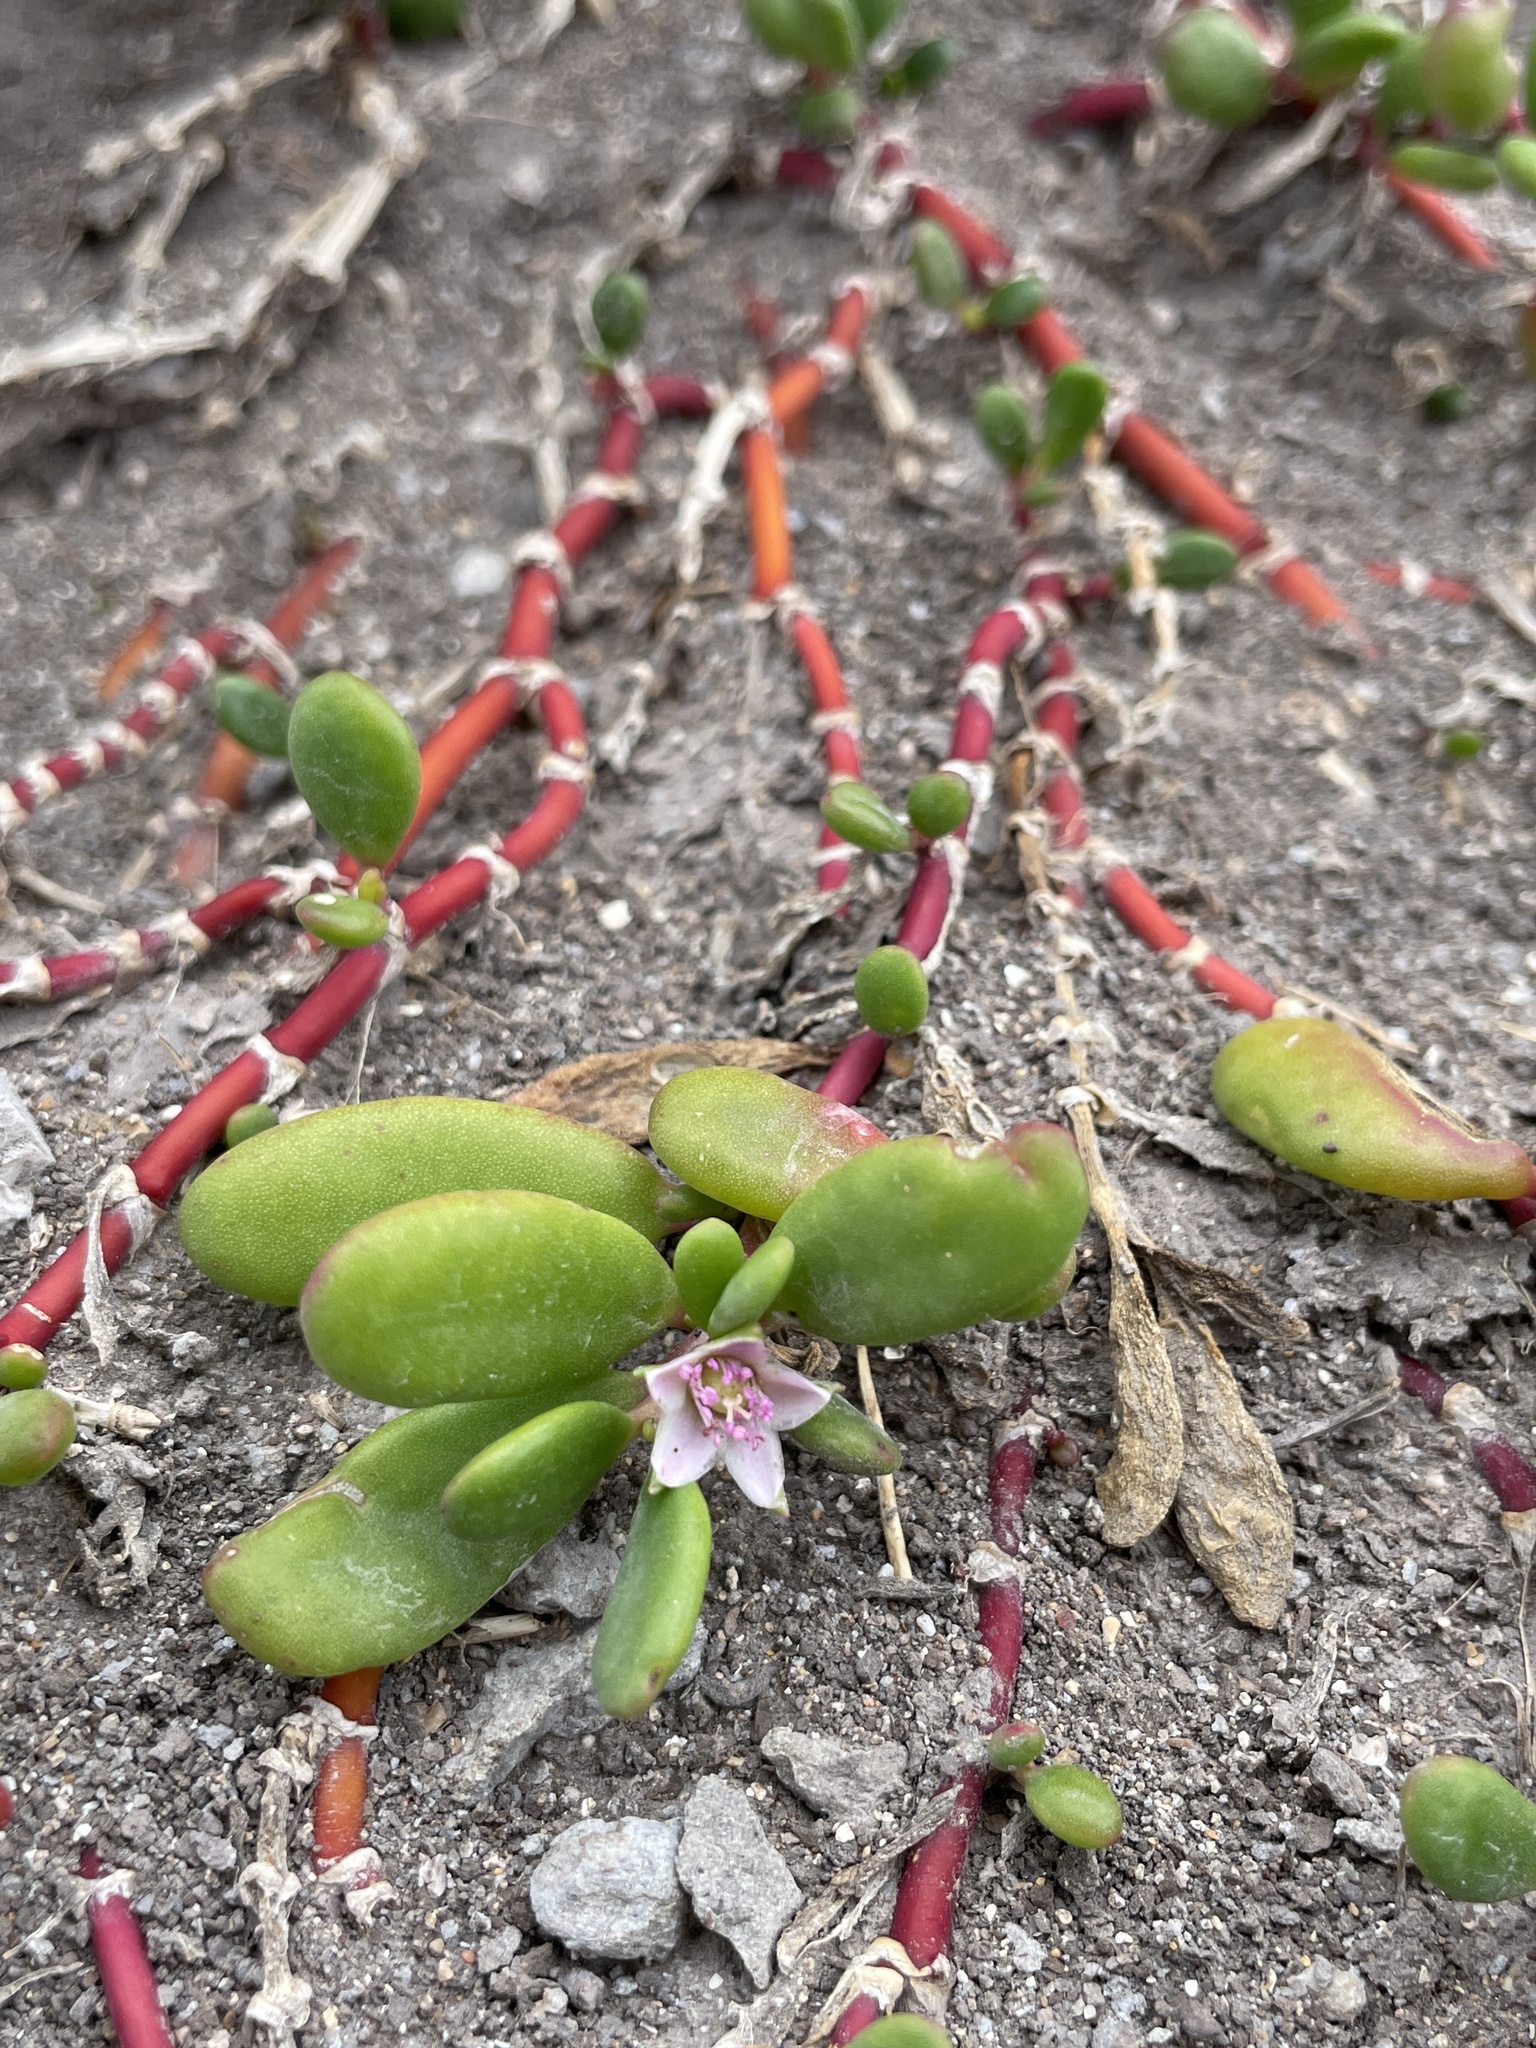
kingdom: Plantae
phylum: Tracheophyta
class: Magnoliopsida
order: Caryophyllales
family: Aizoaceae
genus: Sesuvium
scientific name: Sesuvium portulacastrum
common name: Sea-purslane
